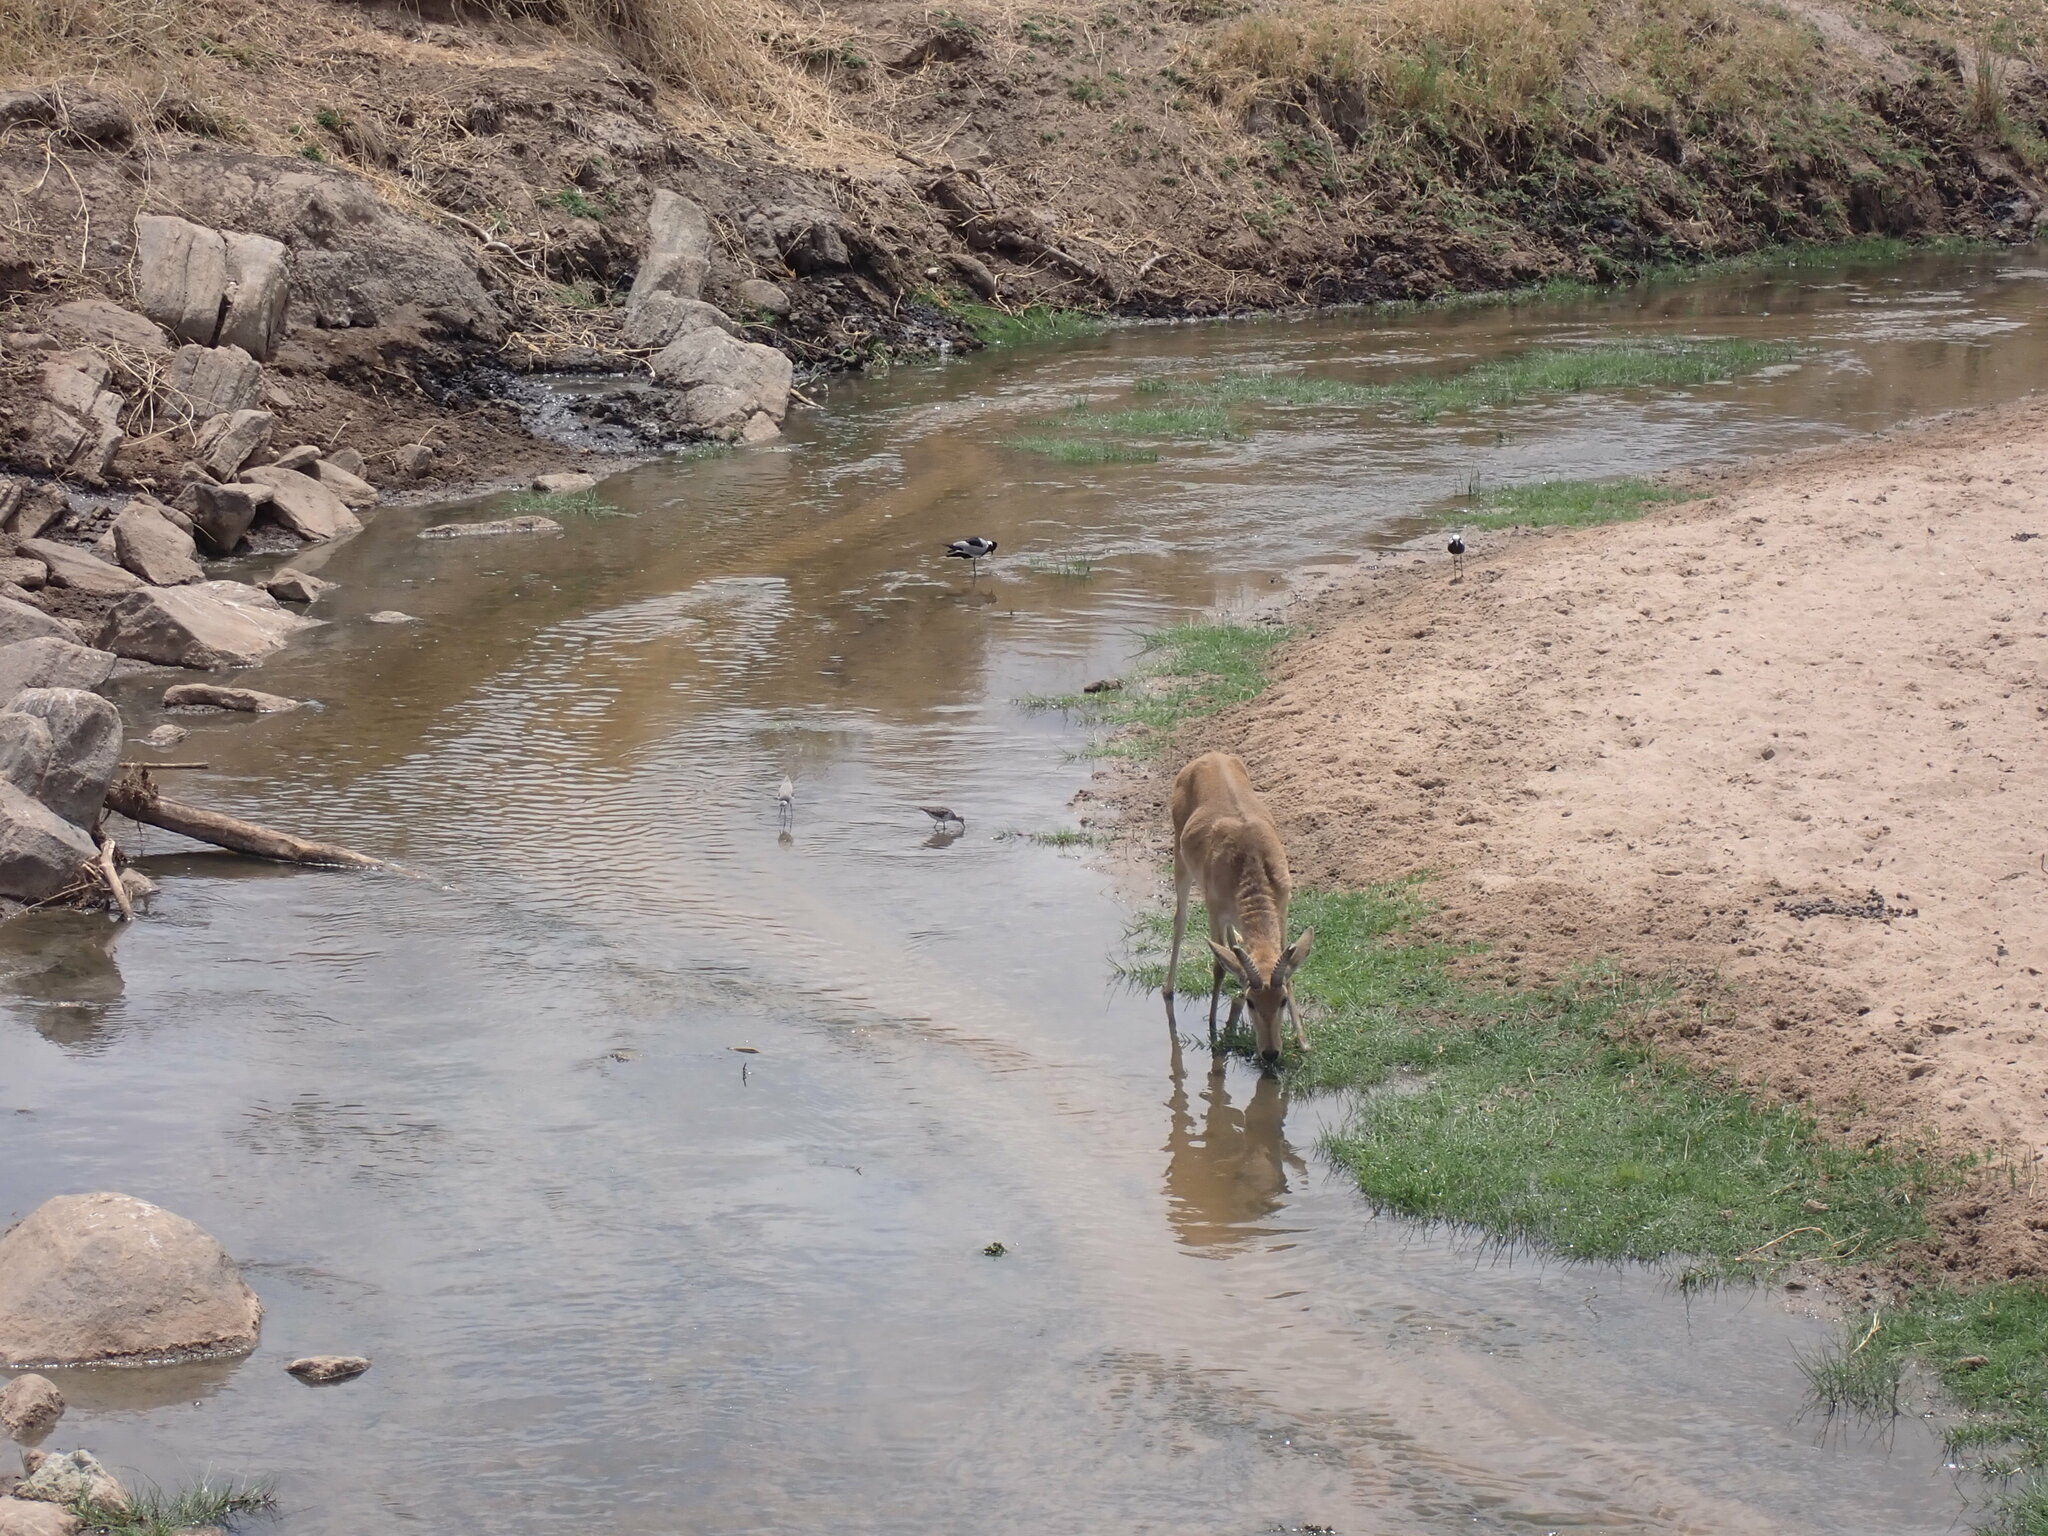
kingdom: Animalia
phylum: Chordata
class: Mammalia
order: Artiodactyla
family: Bovidae
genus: Redunca
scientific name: Redunca redunca
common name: Common reedbuck
